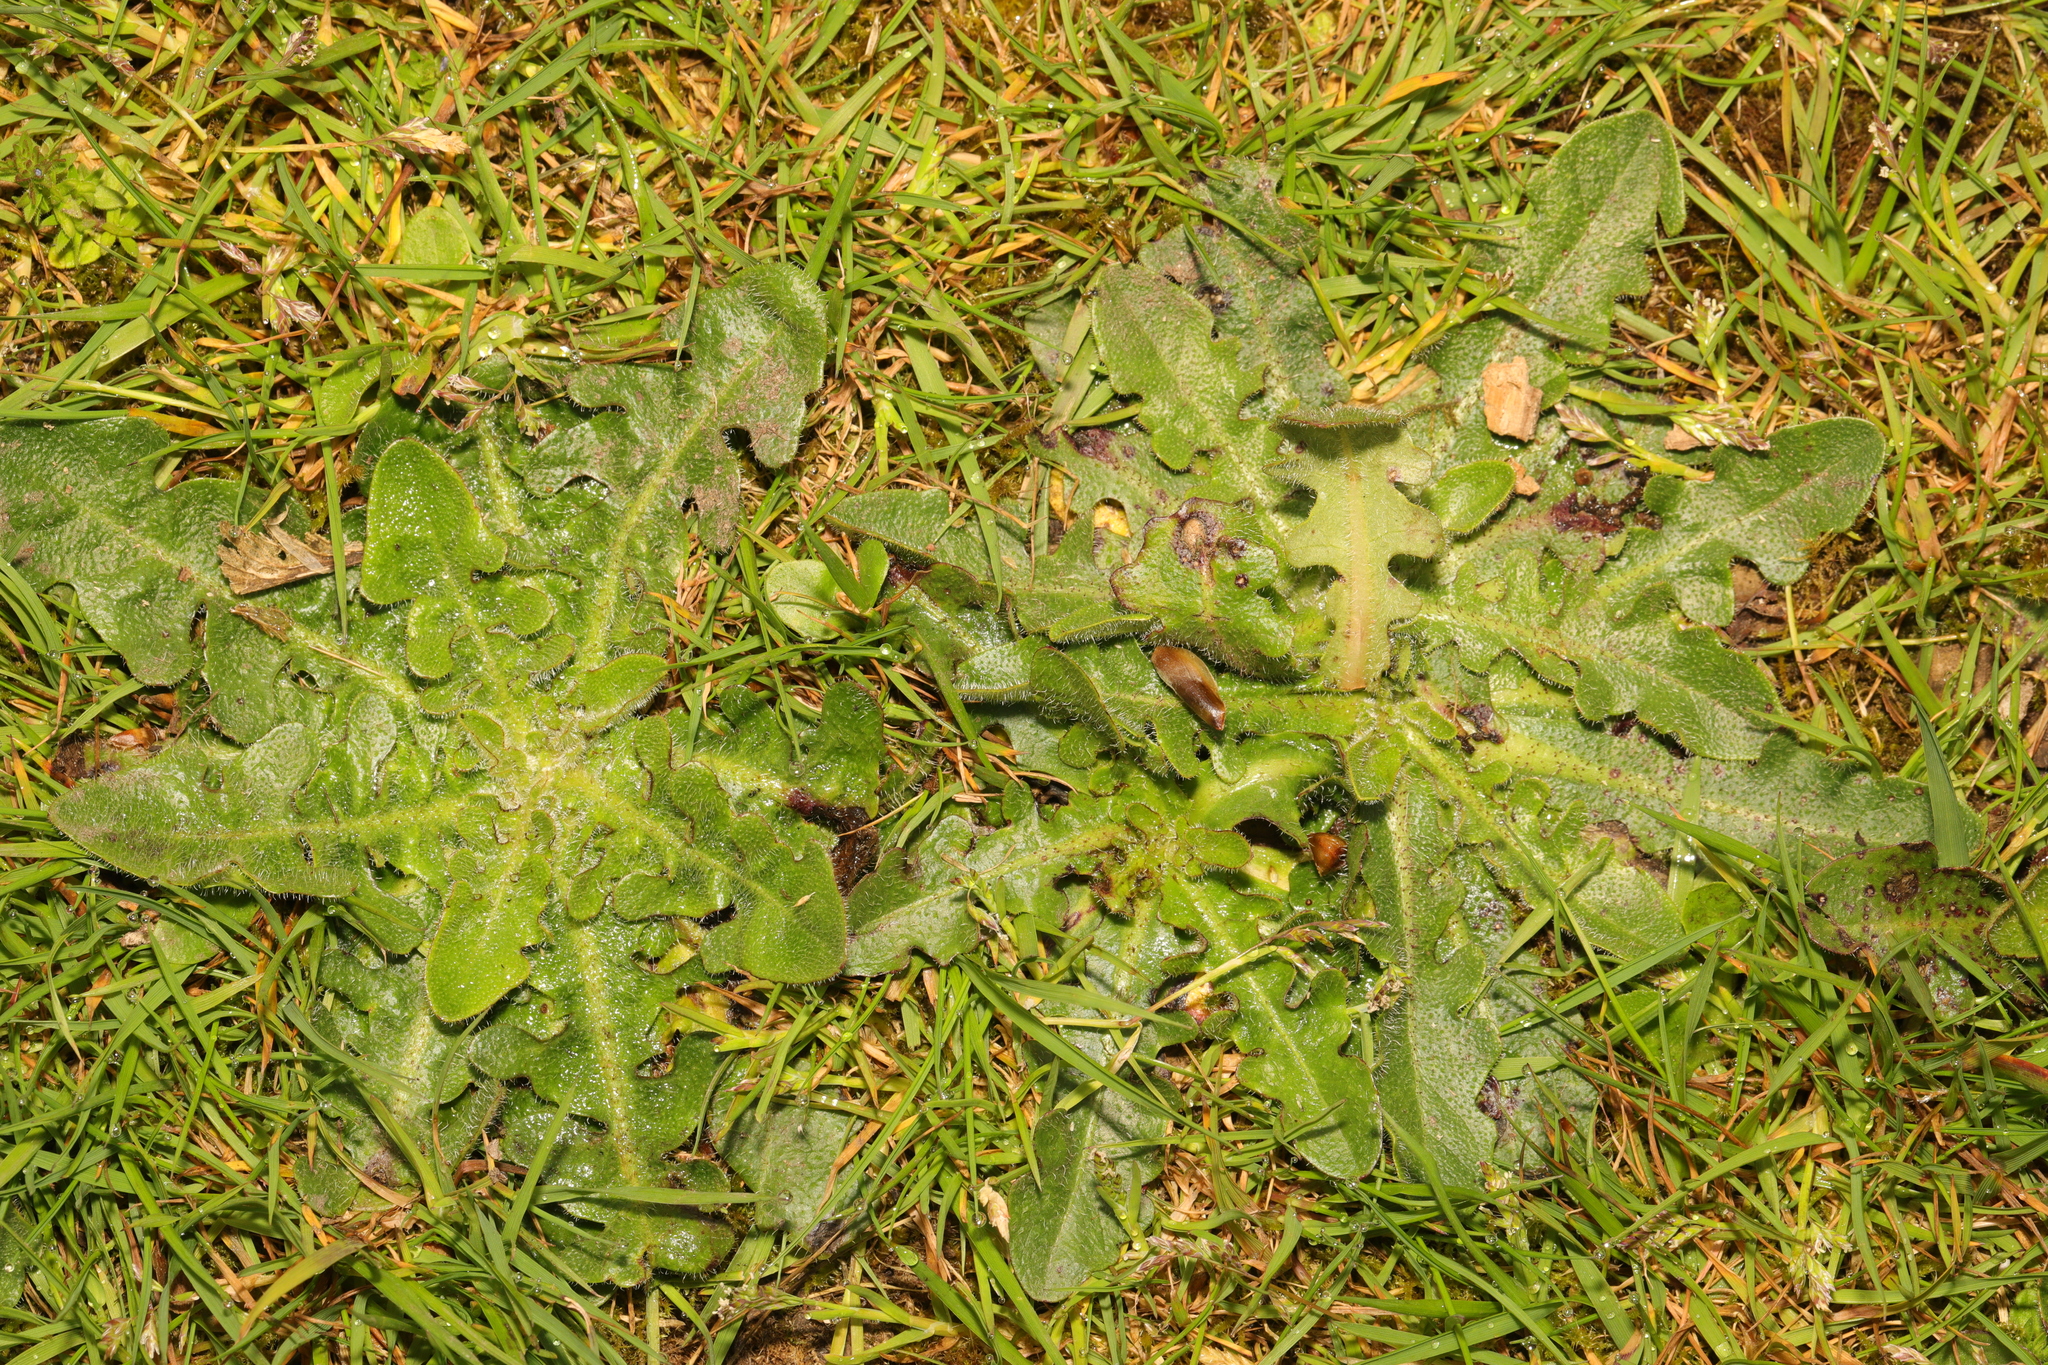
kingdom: Plantae
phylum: Tracheophyta
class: Magnoliopsida
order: Asterales
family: Asteraceae
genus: Hypochaeris
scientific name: Hypochaeris radicata
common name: Flatweed
